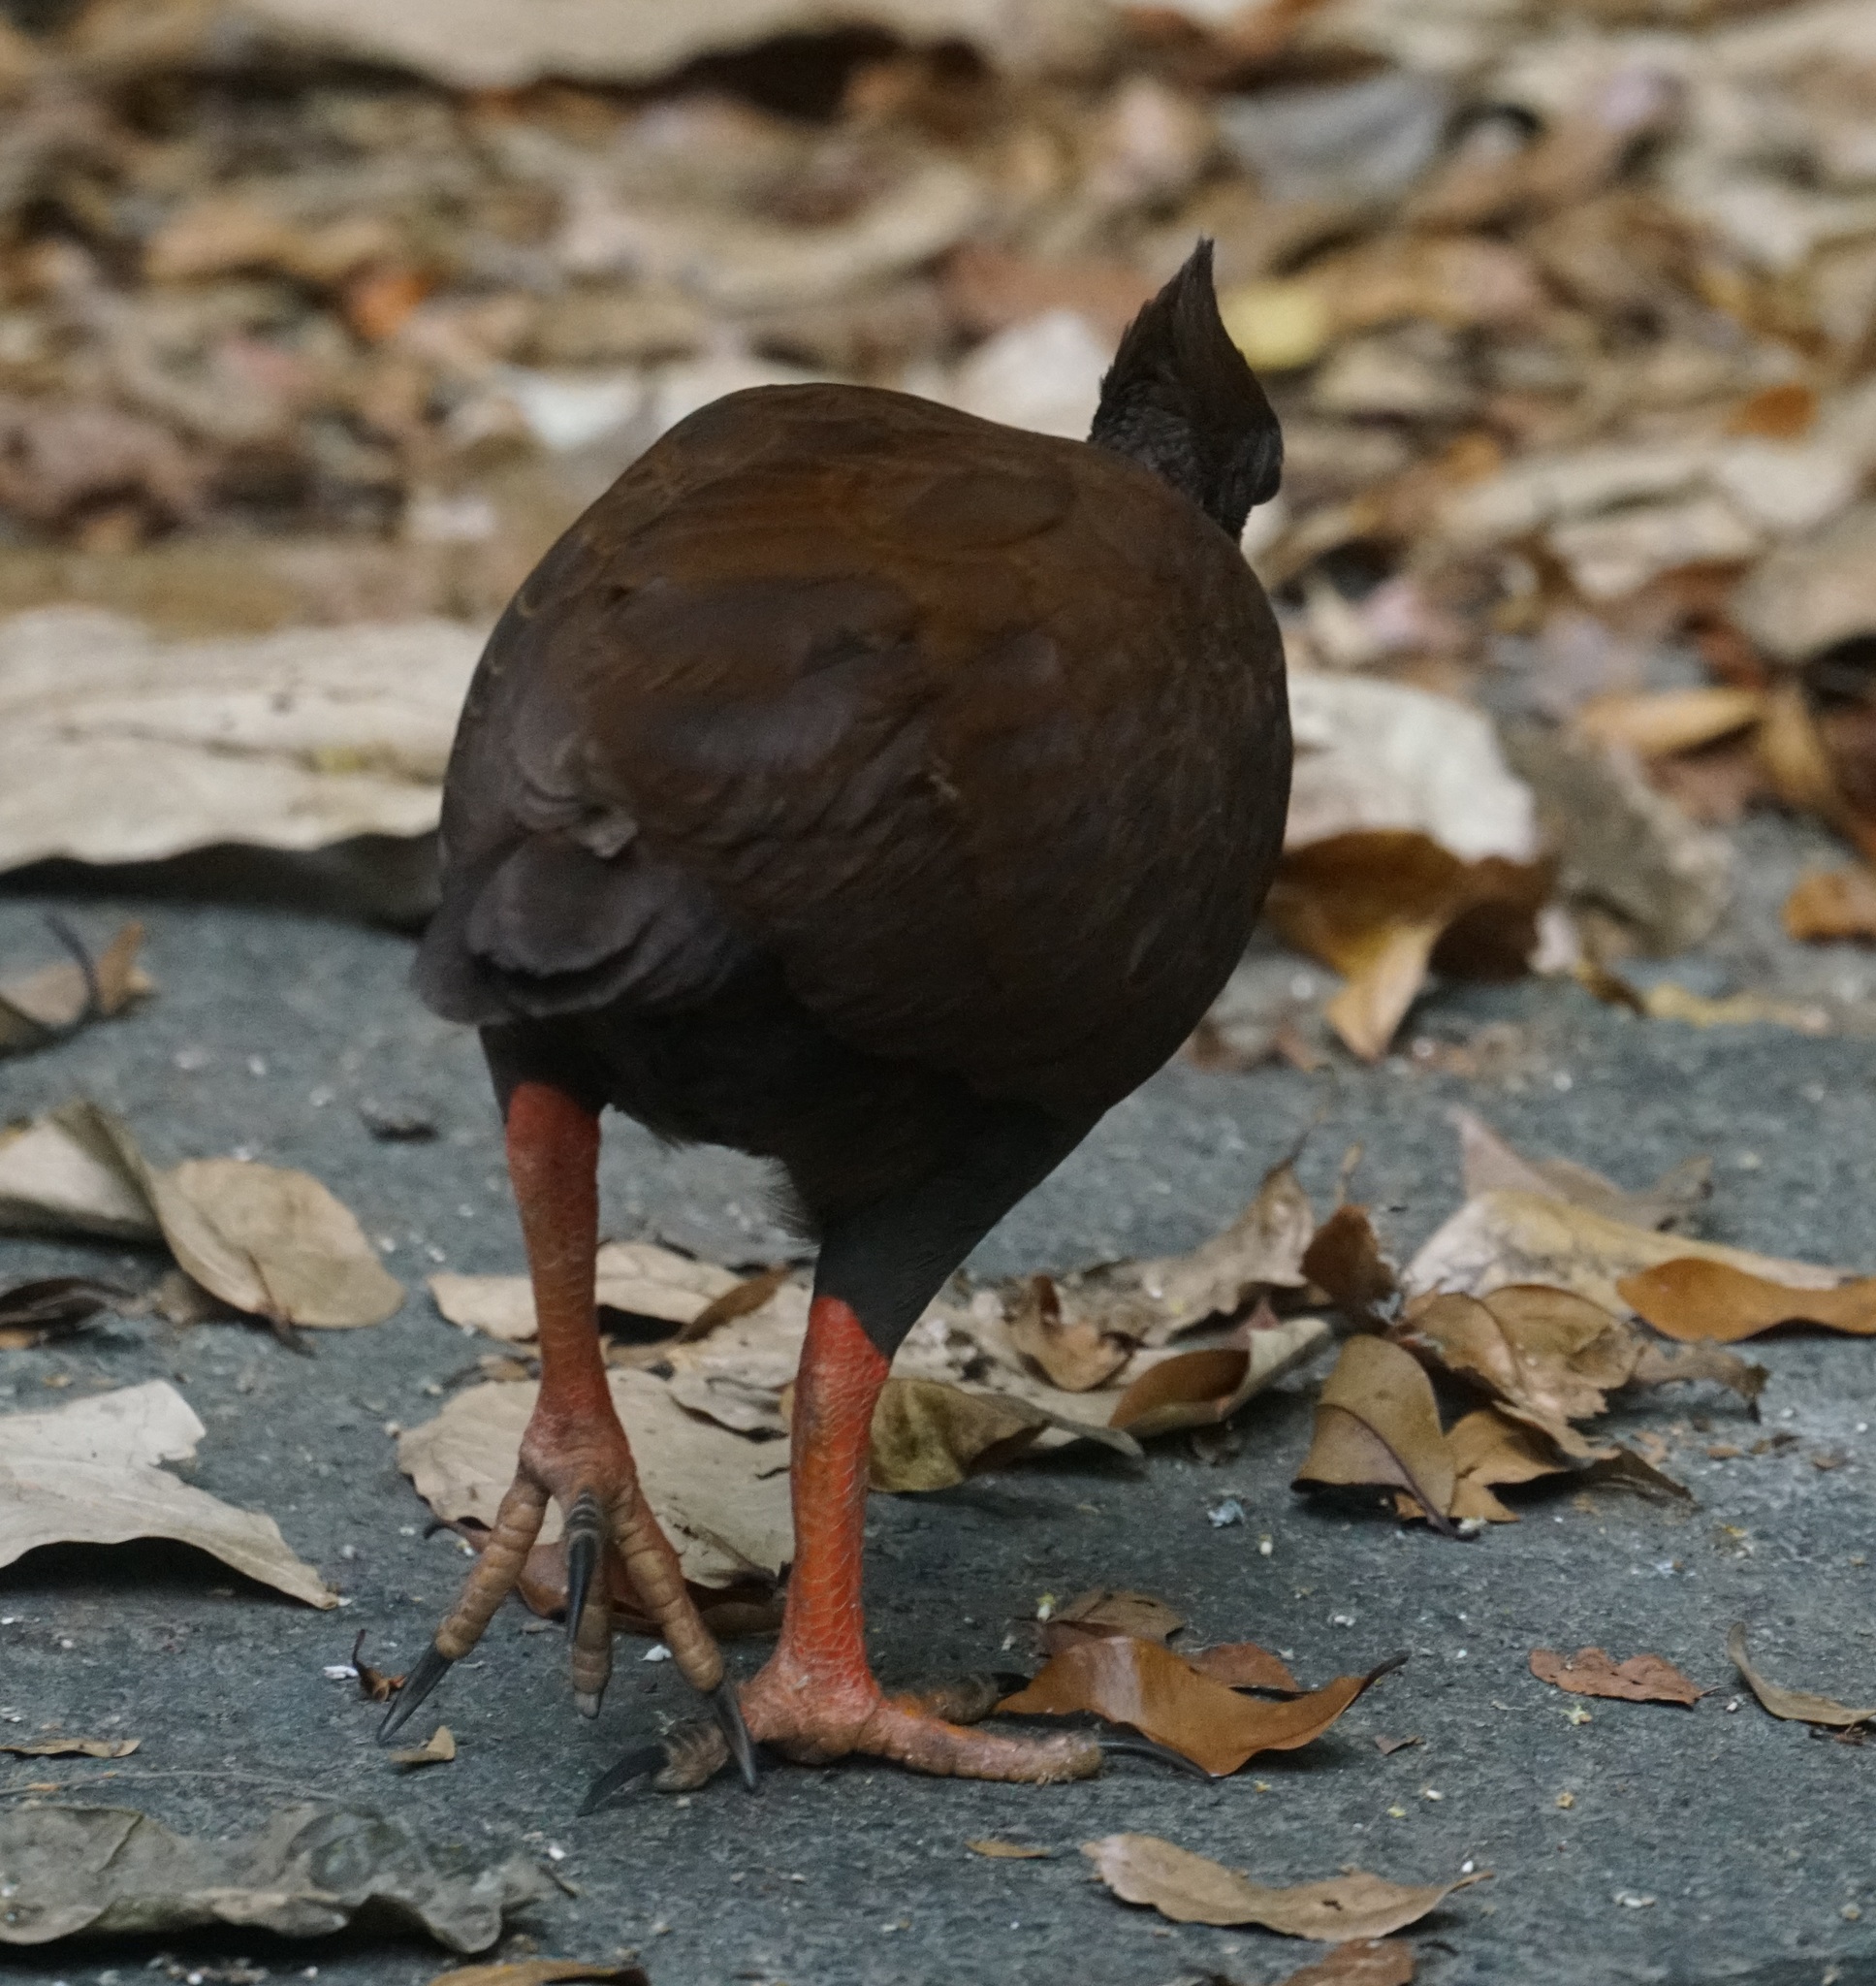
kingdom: Animalia
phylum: Chordata
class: Aves
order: Galliformes
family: Megapodiidae
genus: Megapodius
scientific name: Megapodius reinwardt
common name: Orange-footed scrubfowl
